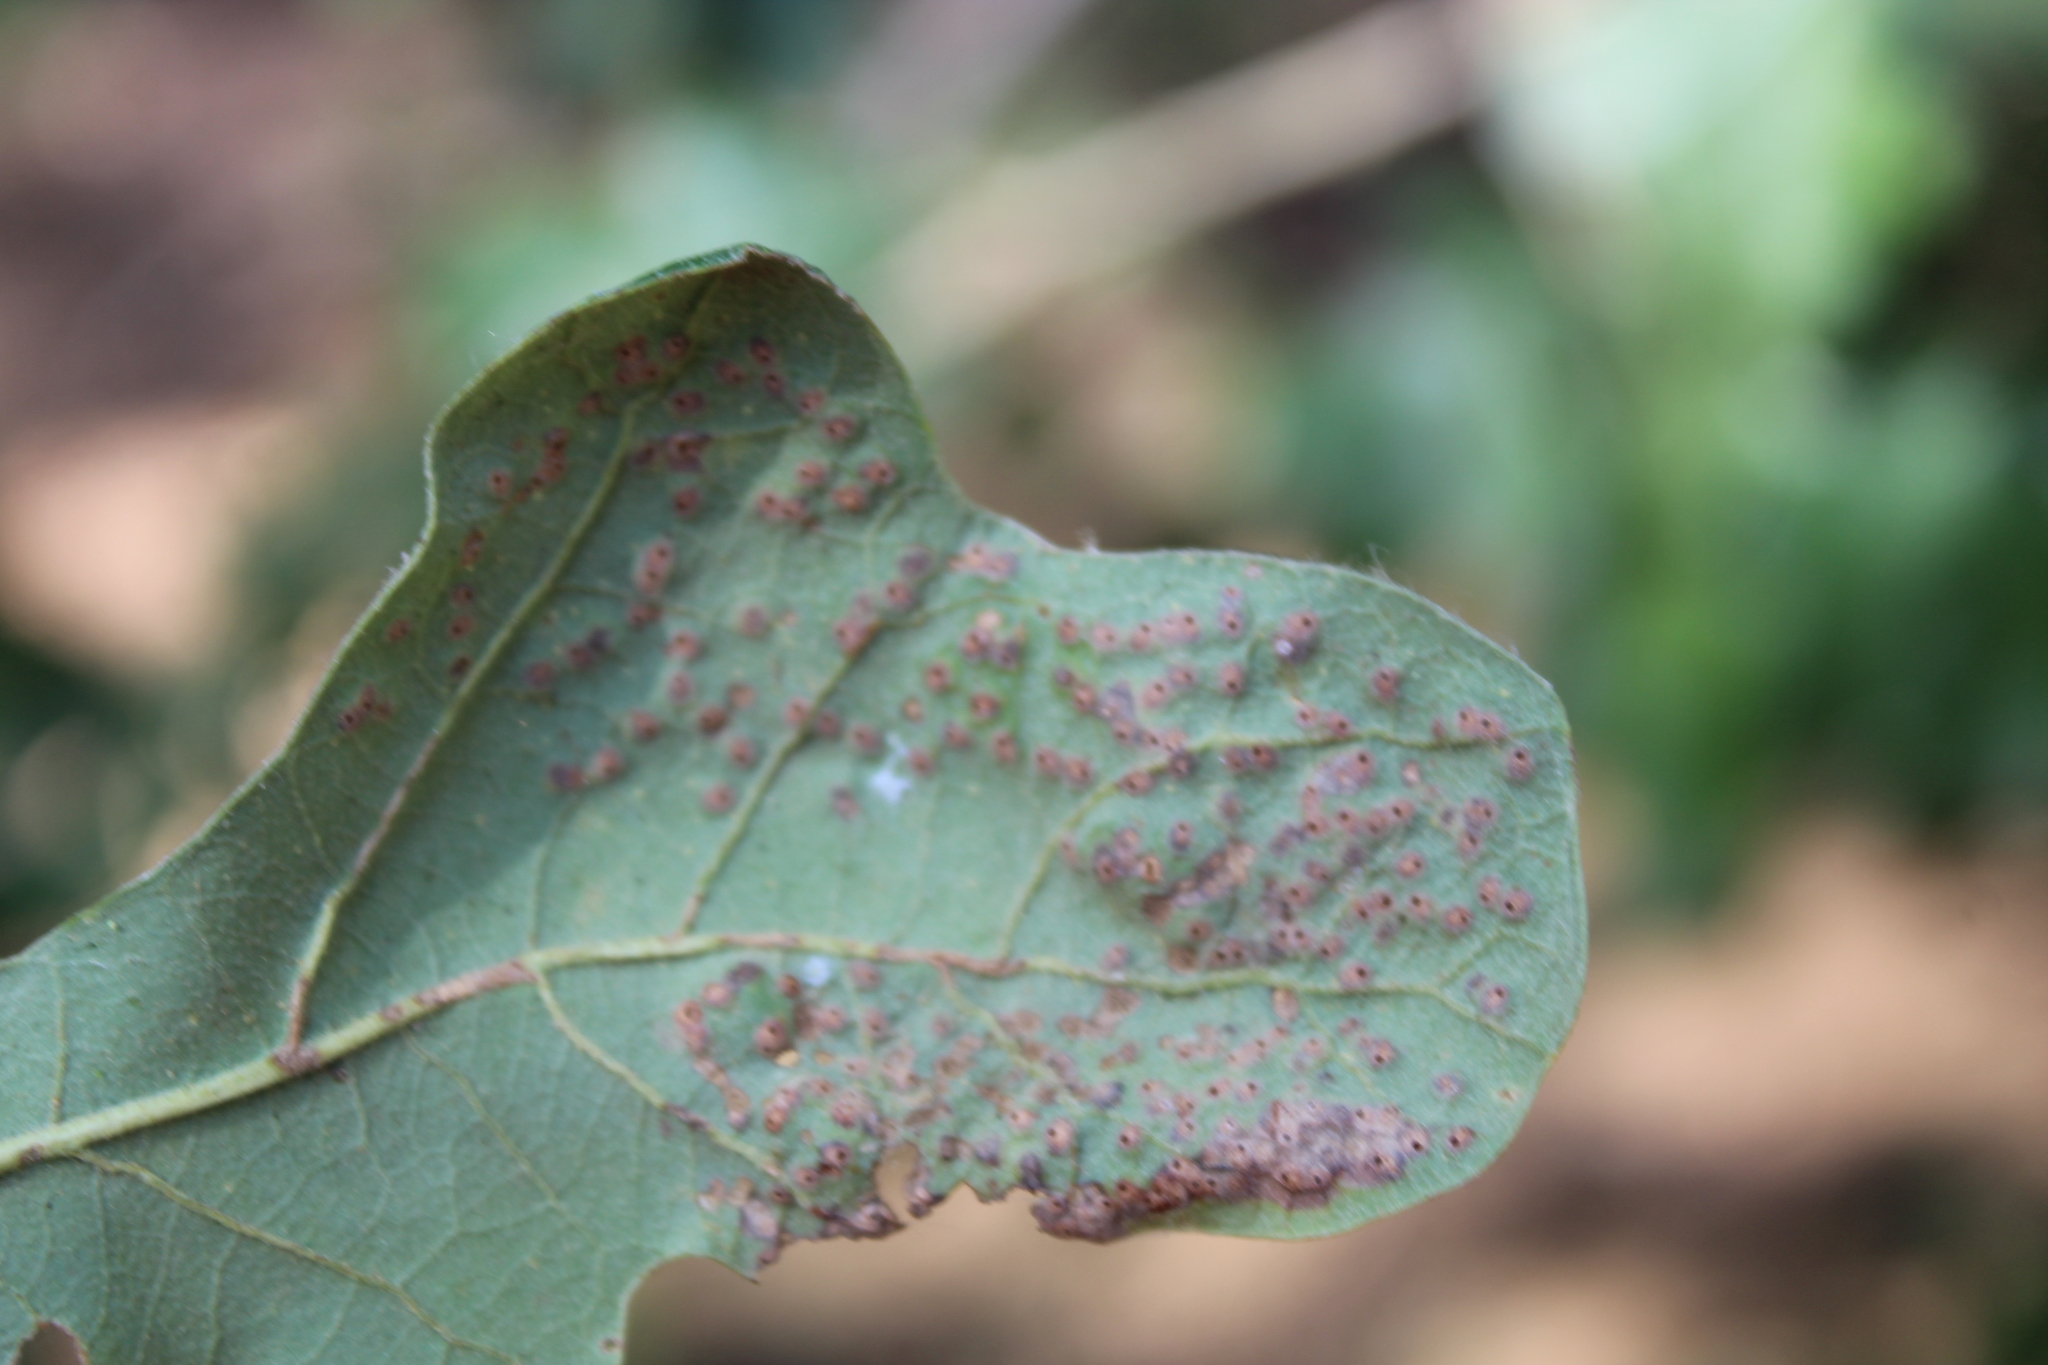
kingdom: Animalia
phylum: Arthropoda
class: Insecta
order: Hymenoptera
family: Cynipidae
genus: Neuroterus
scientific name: Neuroterus niger
